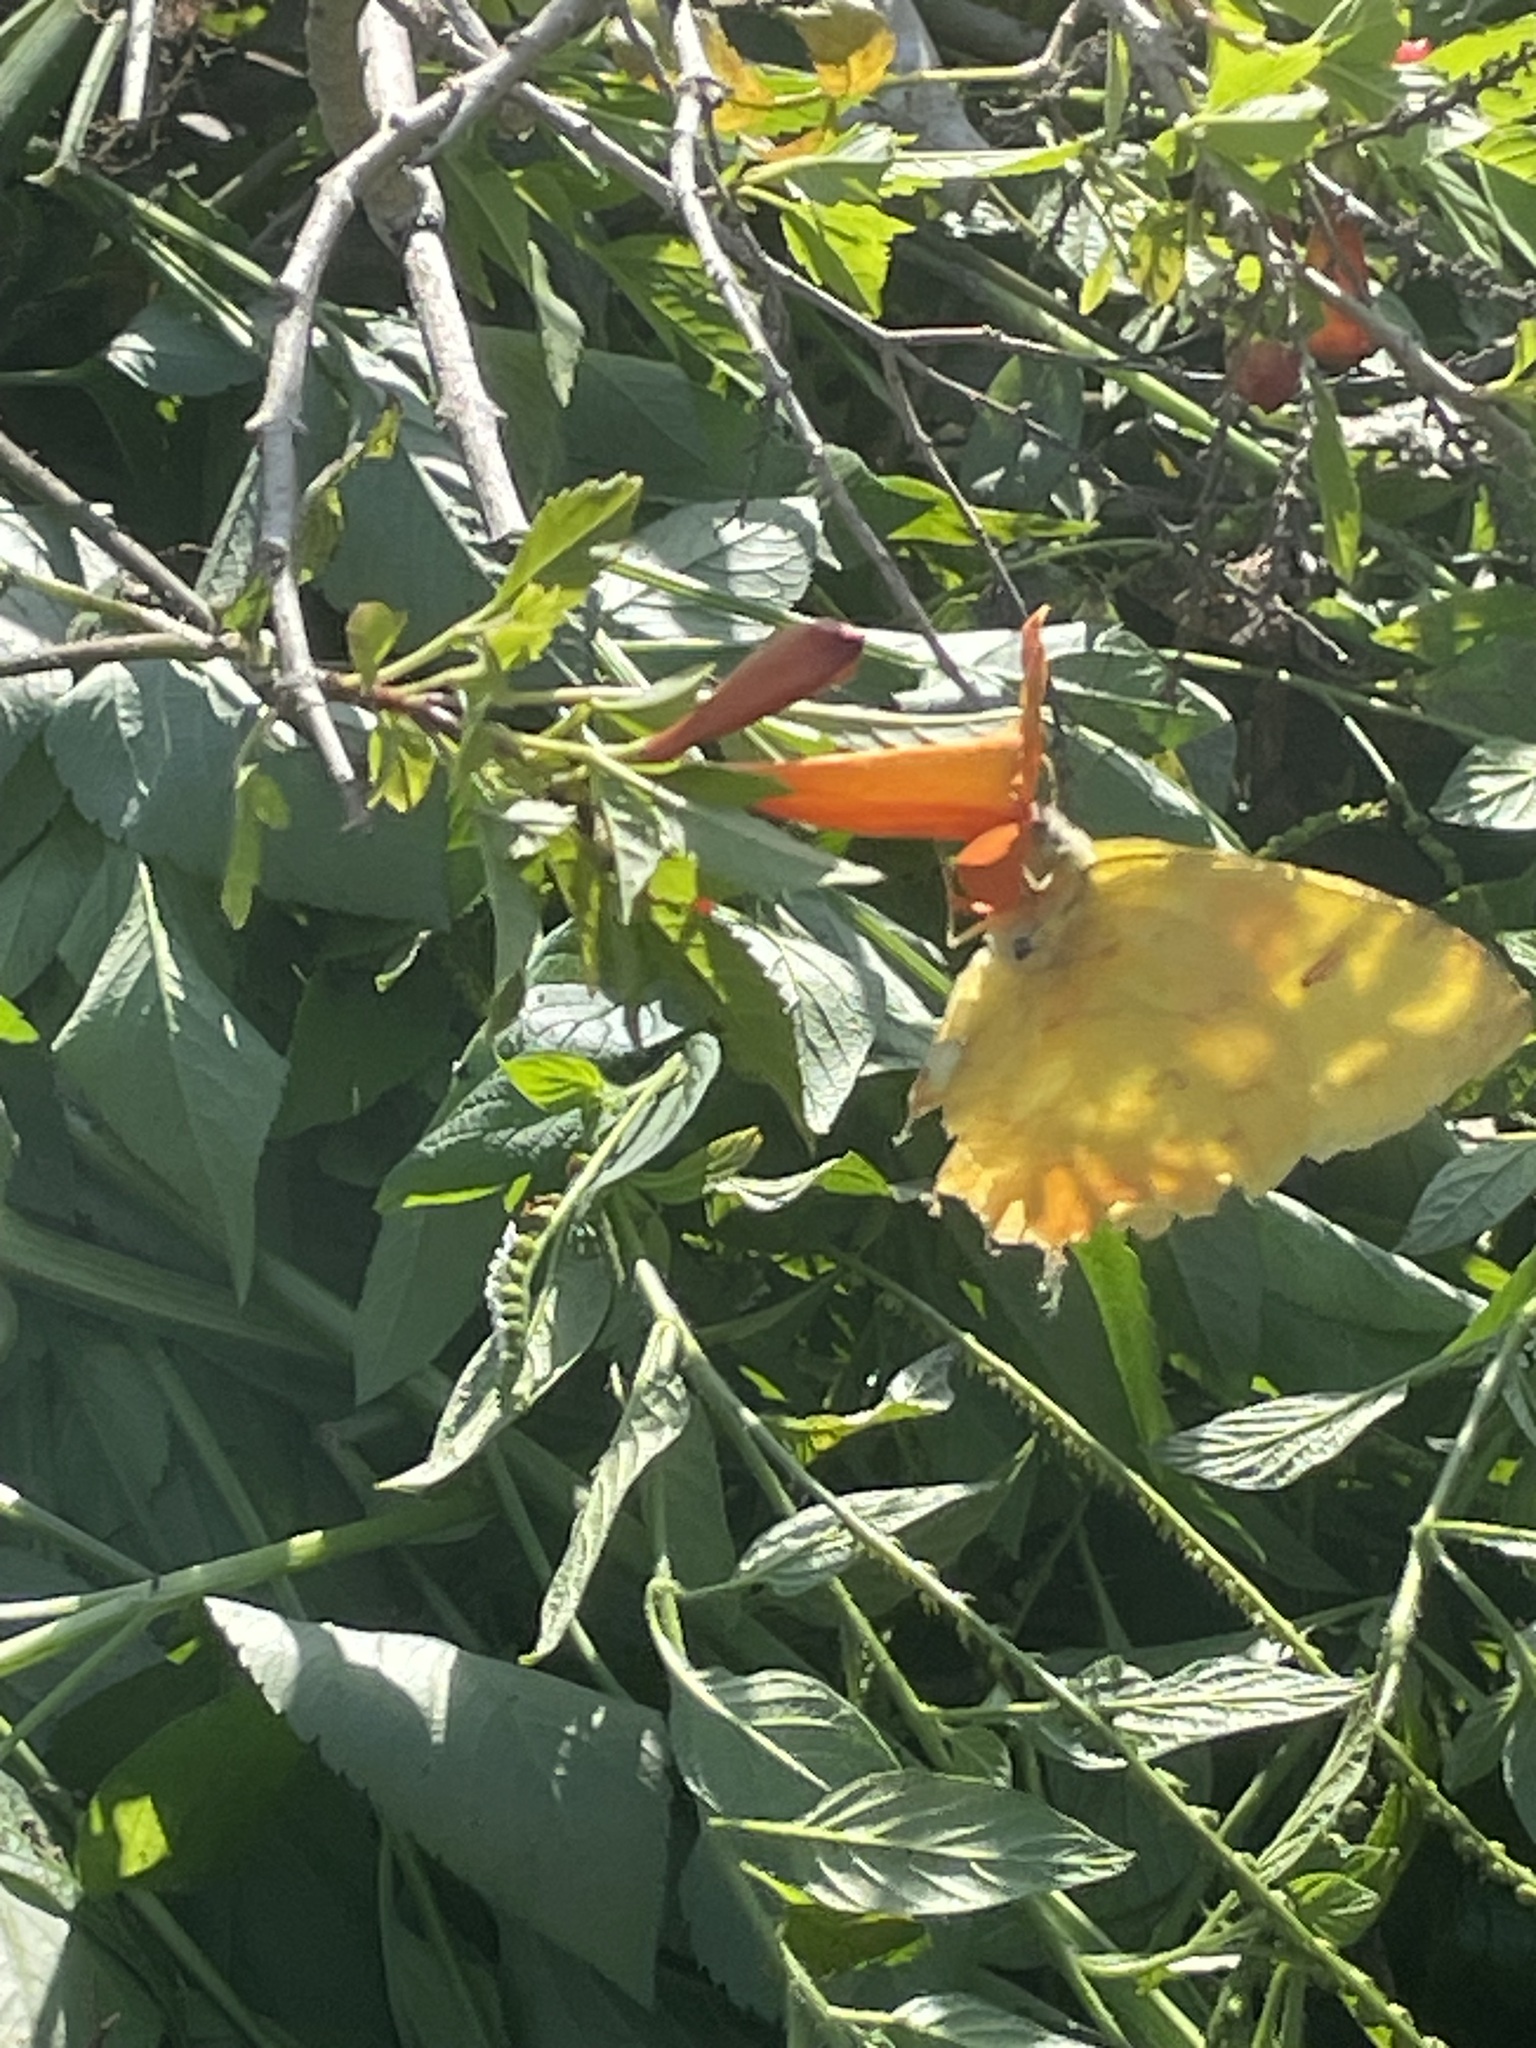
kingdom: Animalia
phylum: Arthropoda
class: Insecta
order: Lepidoptera
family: Pieridae
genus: Phoebis
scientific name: Phoebis philea
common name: Orange-barred giant sulphur
